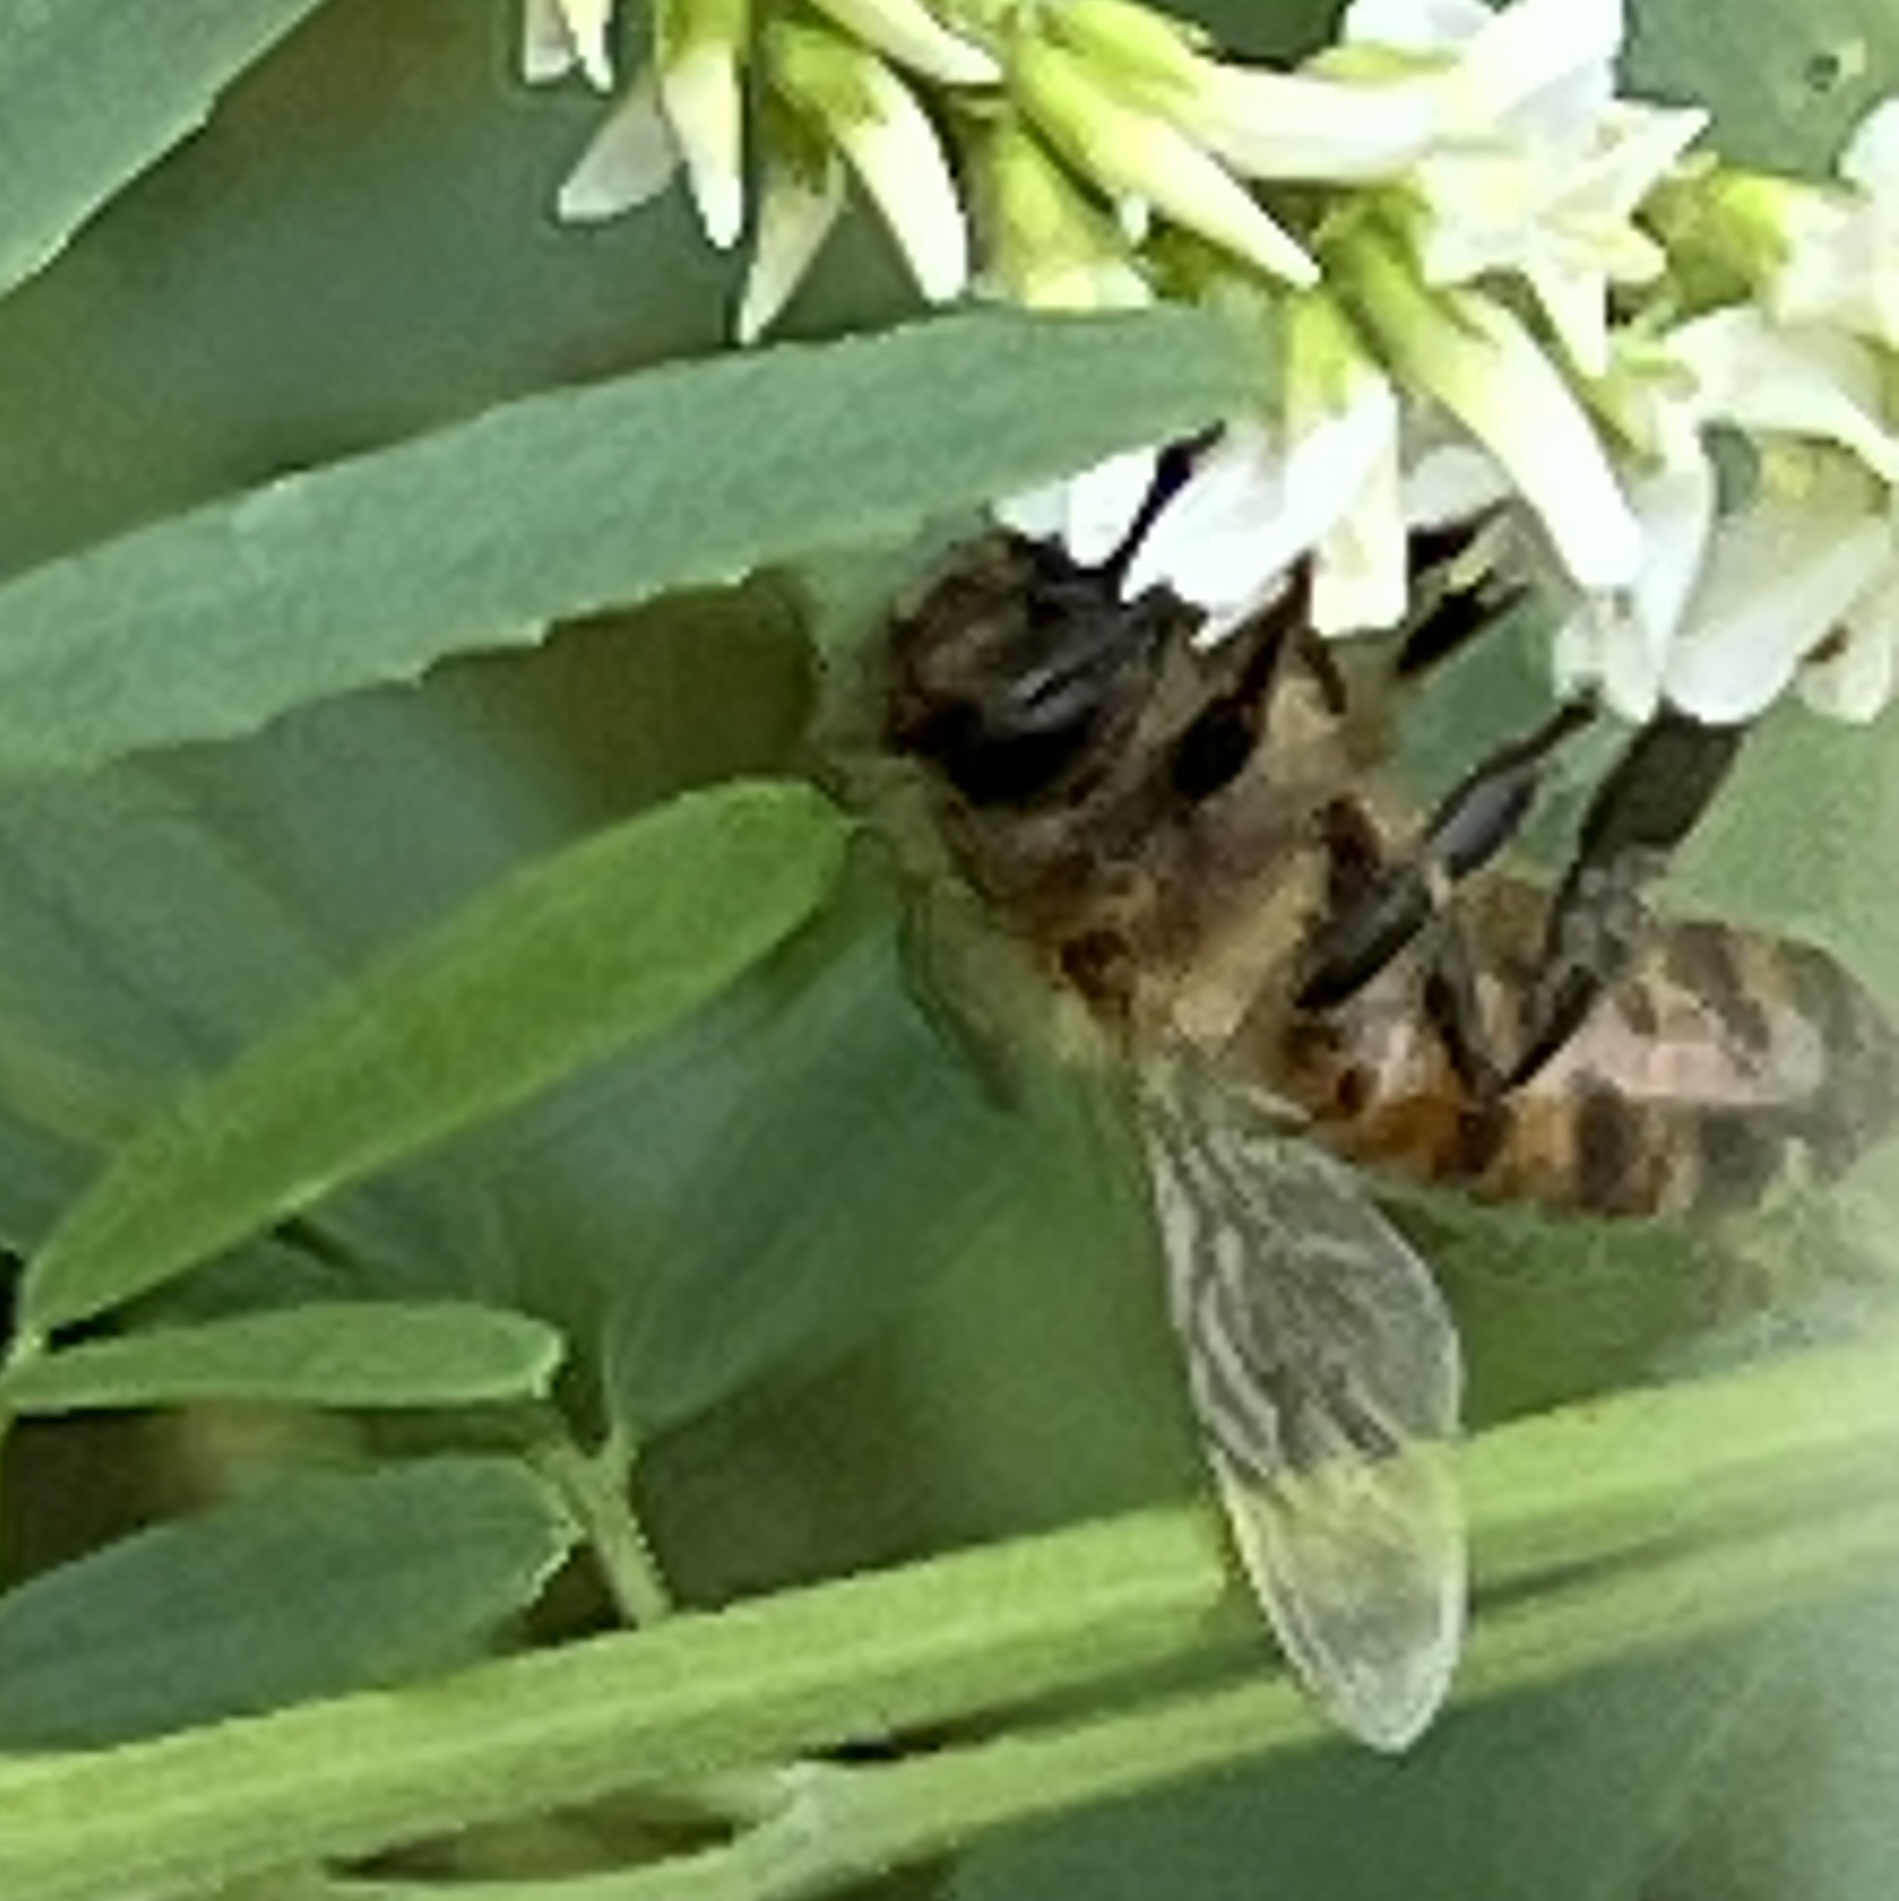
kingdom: Animalia
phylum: Arthropoda
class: Insecta
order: Hymenoptera
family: Apidae
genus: Apis
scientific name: Apis mellifera
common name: Honey bee
